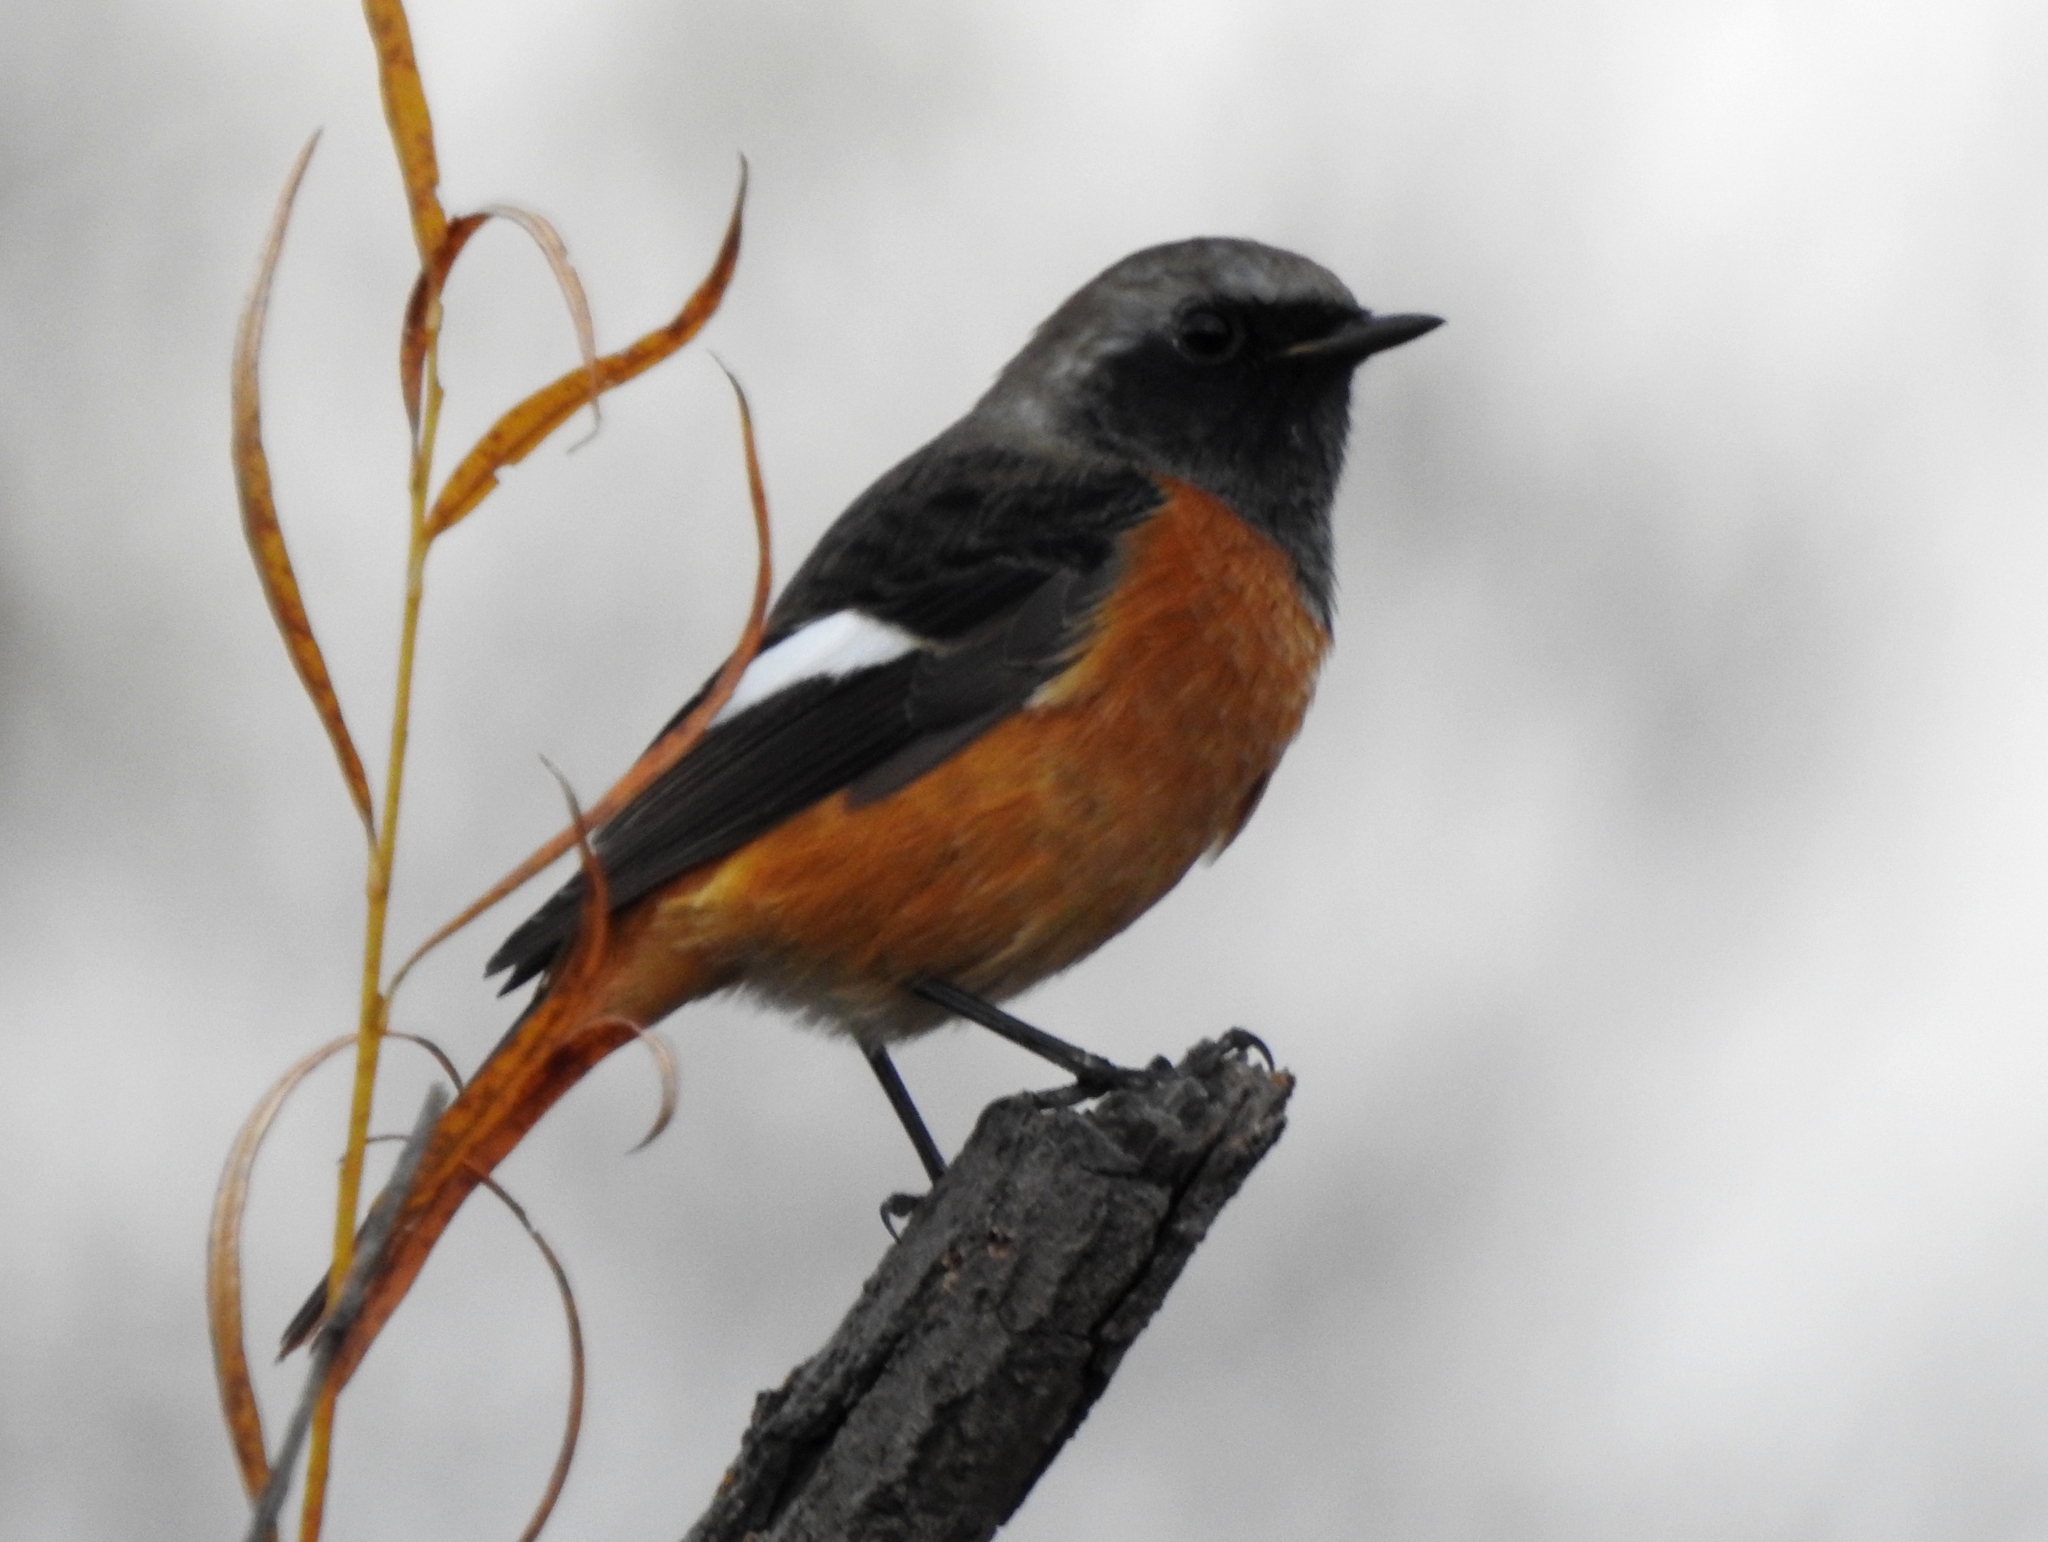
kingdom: Animalia
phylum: Chordata
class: Aves
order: Passeriformes
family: Muscicapidae
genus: Phoenicurus
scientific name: Phoenicurus auroreus
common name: Daurian redstart
